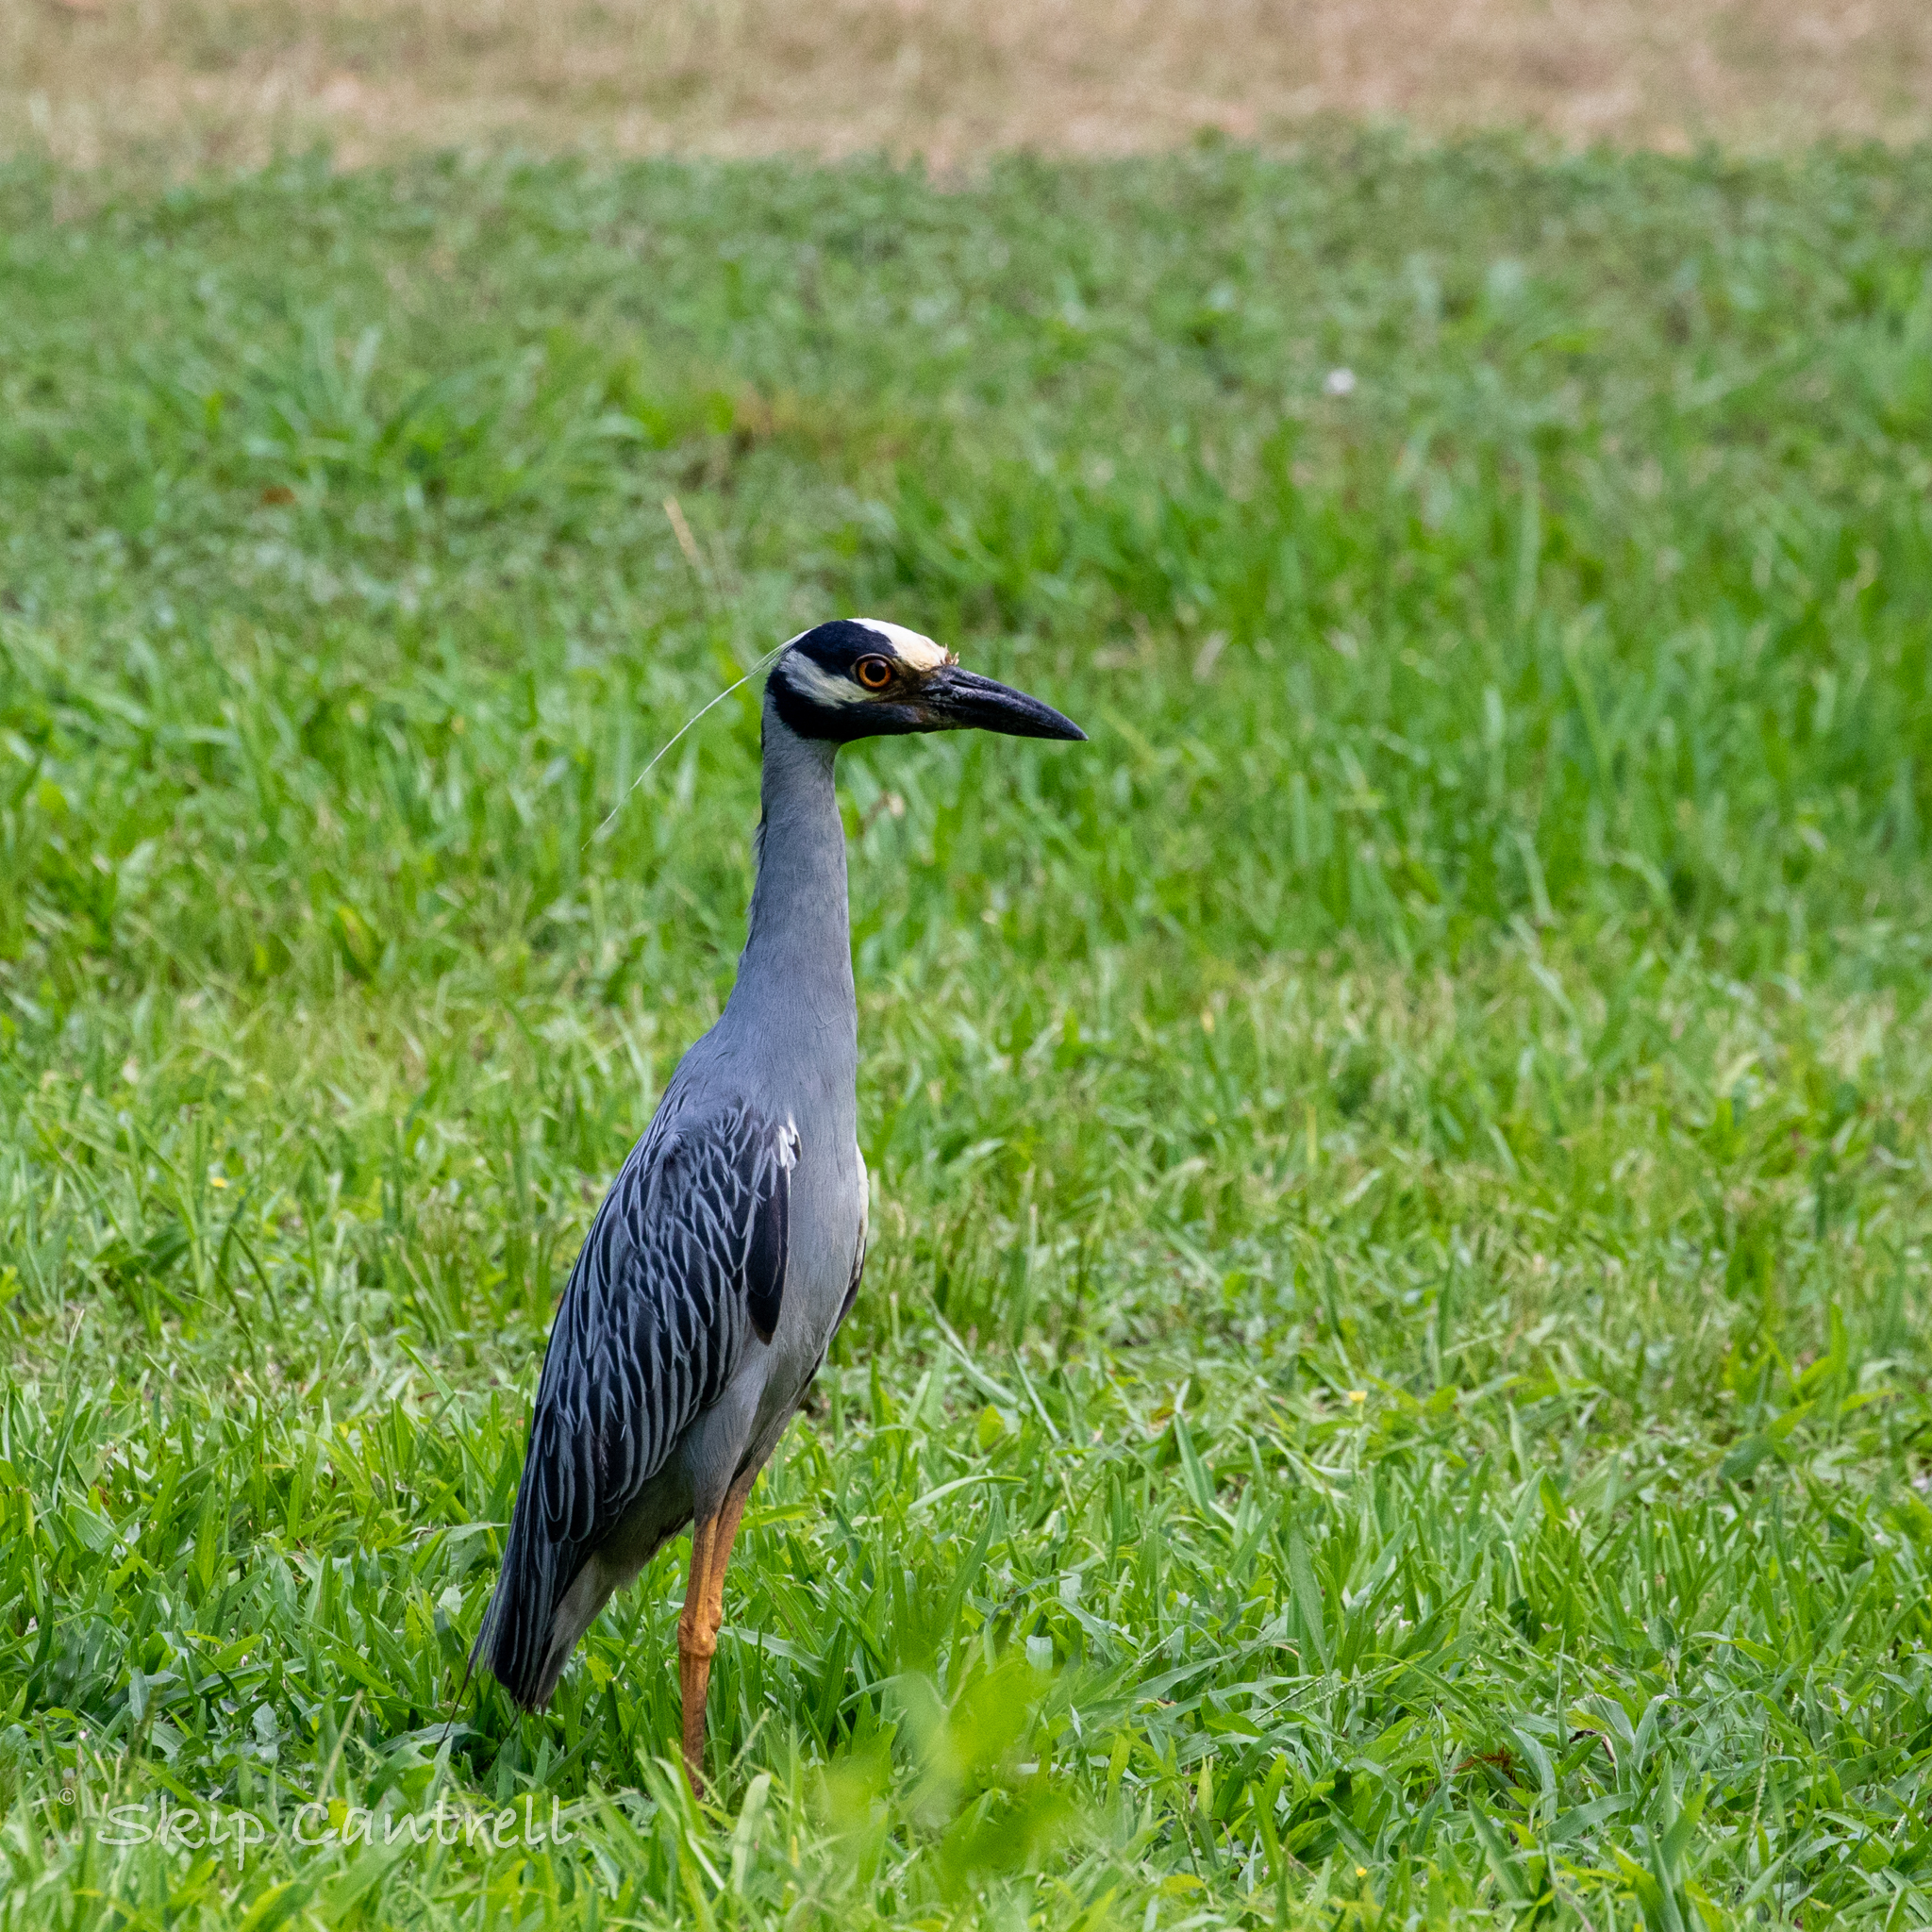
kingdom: Animalia
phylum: Chordata
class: Aves
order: Pelecaniformes
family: Ardeidae
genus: Nyctanassa
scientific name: Nyctanassa violacea
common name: Yellow-crowned night heron
